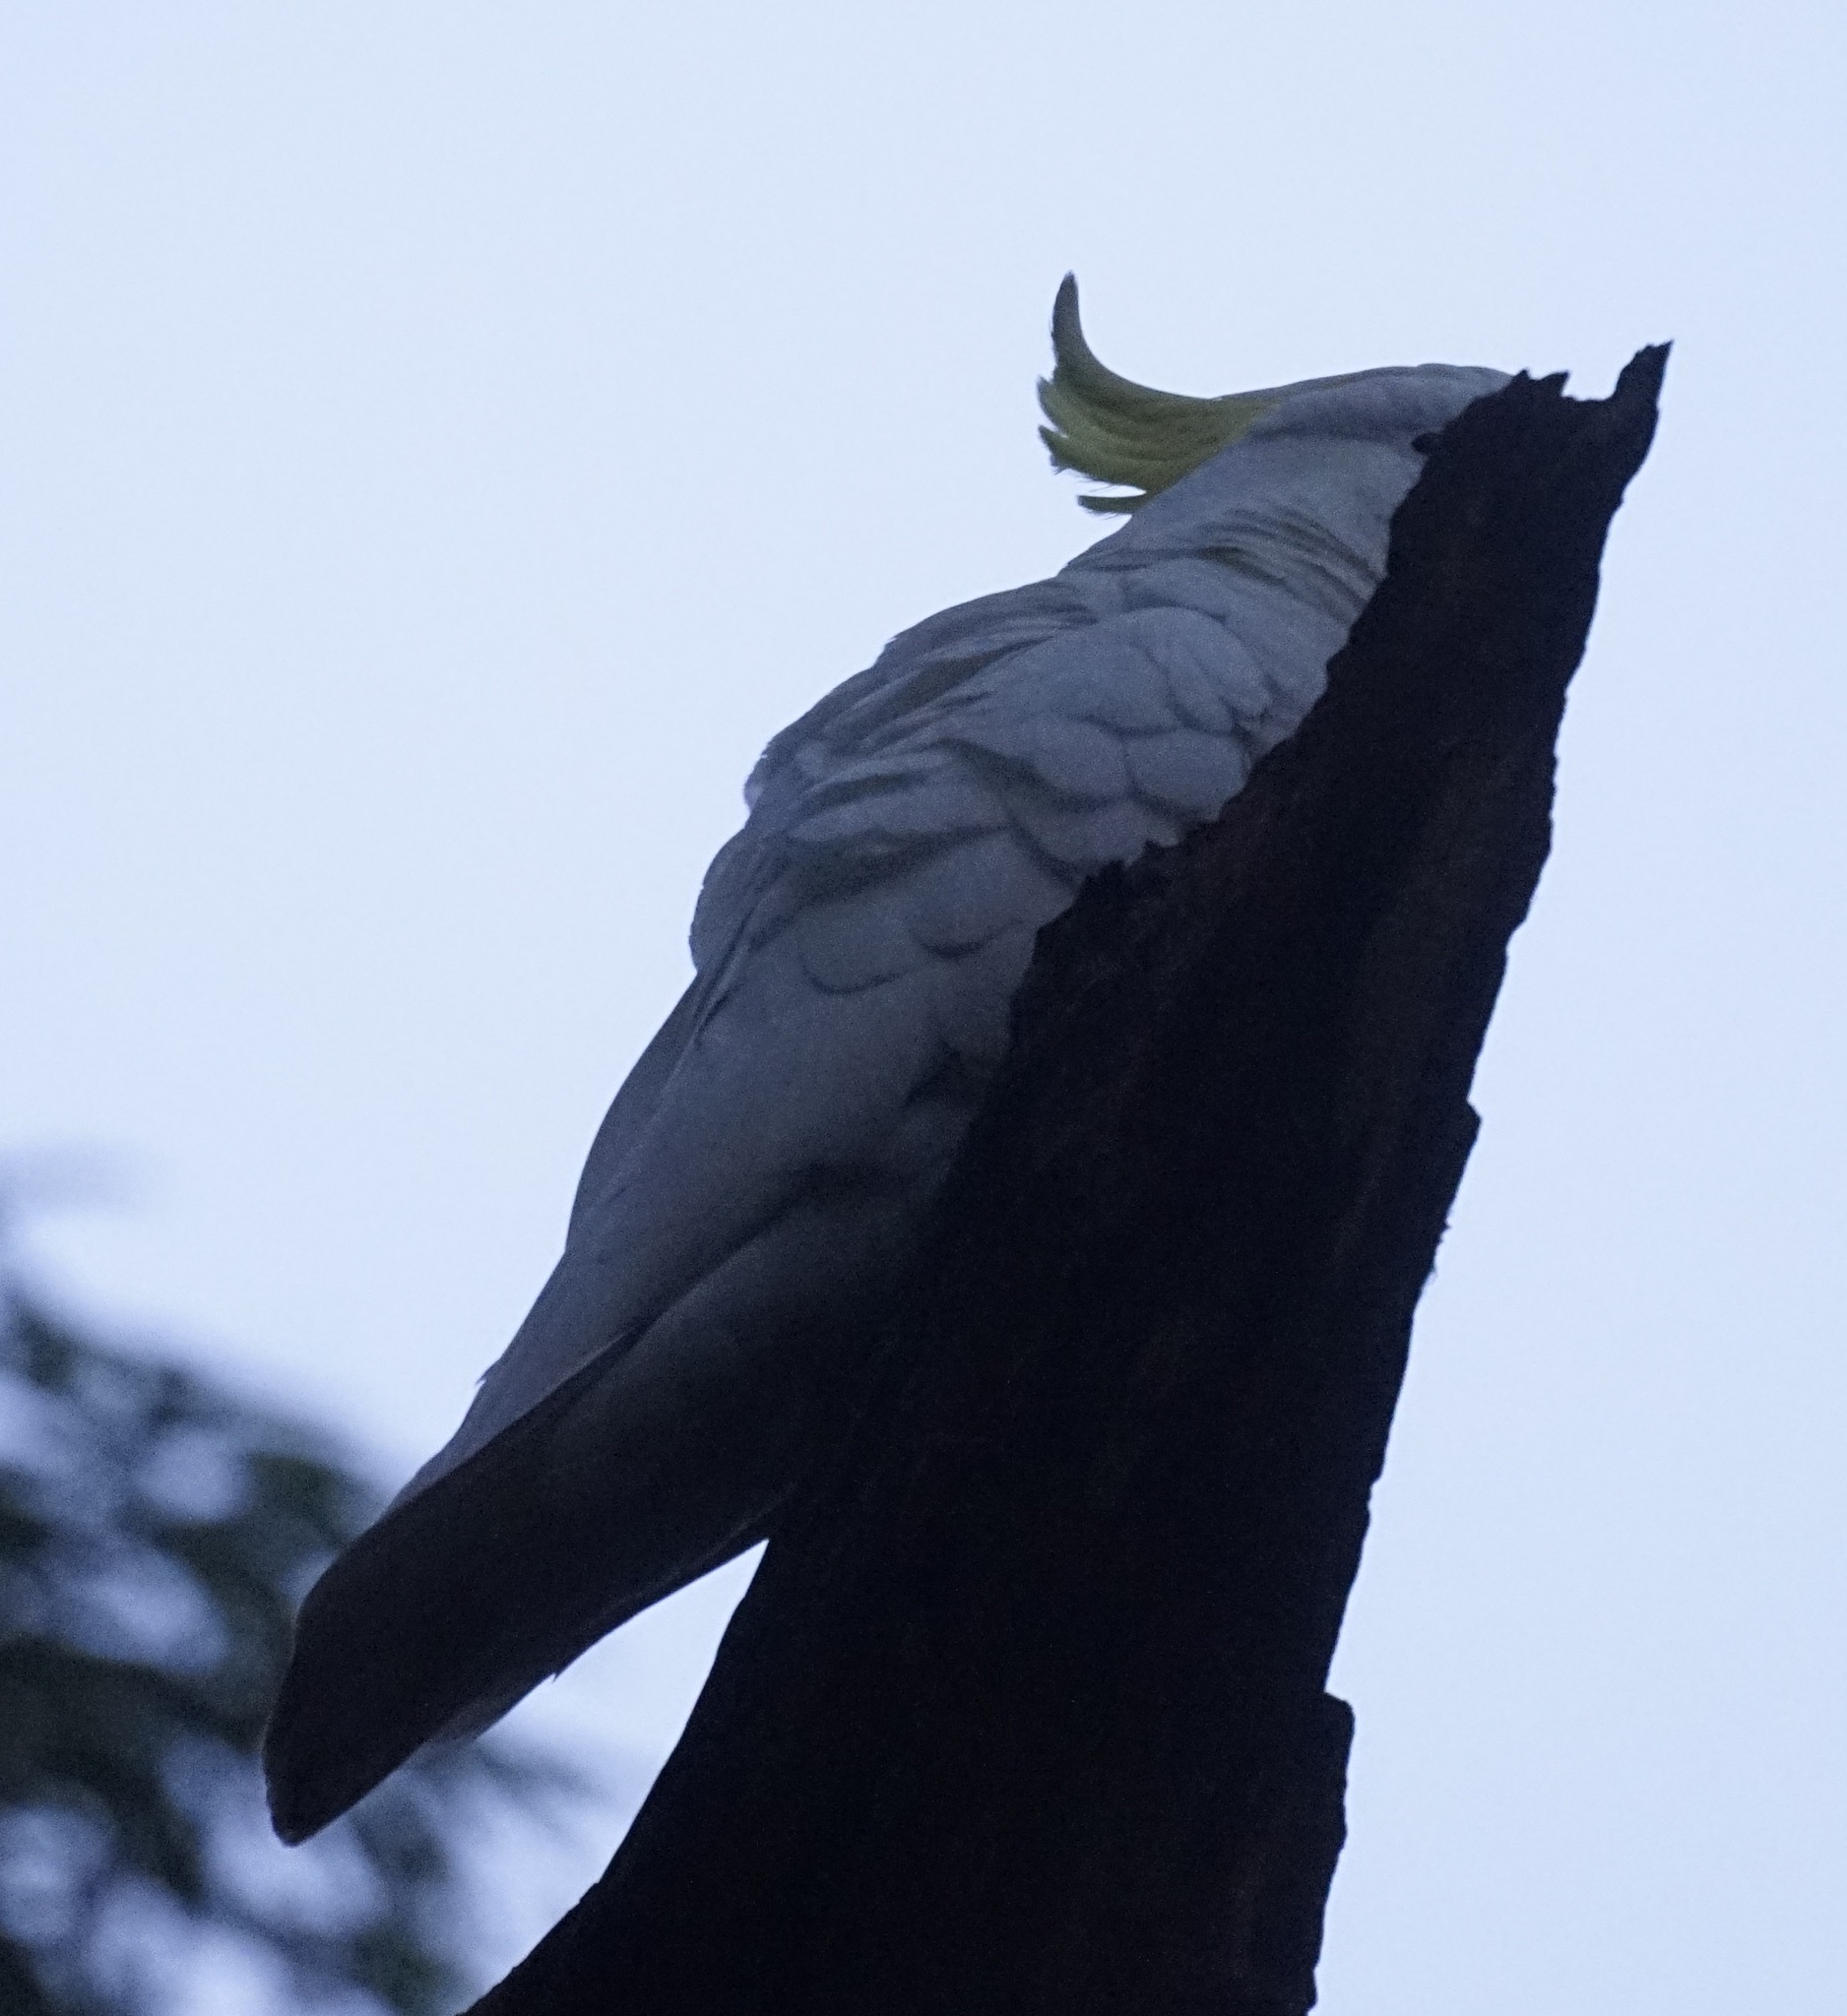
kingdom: Animalia
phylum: Chordata
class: Aves
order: Psittaciformes
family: Psittacidae
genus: Cacatua
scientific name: Cacatua galerita
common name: Sulphur-crested cockatoo
